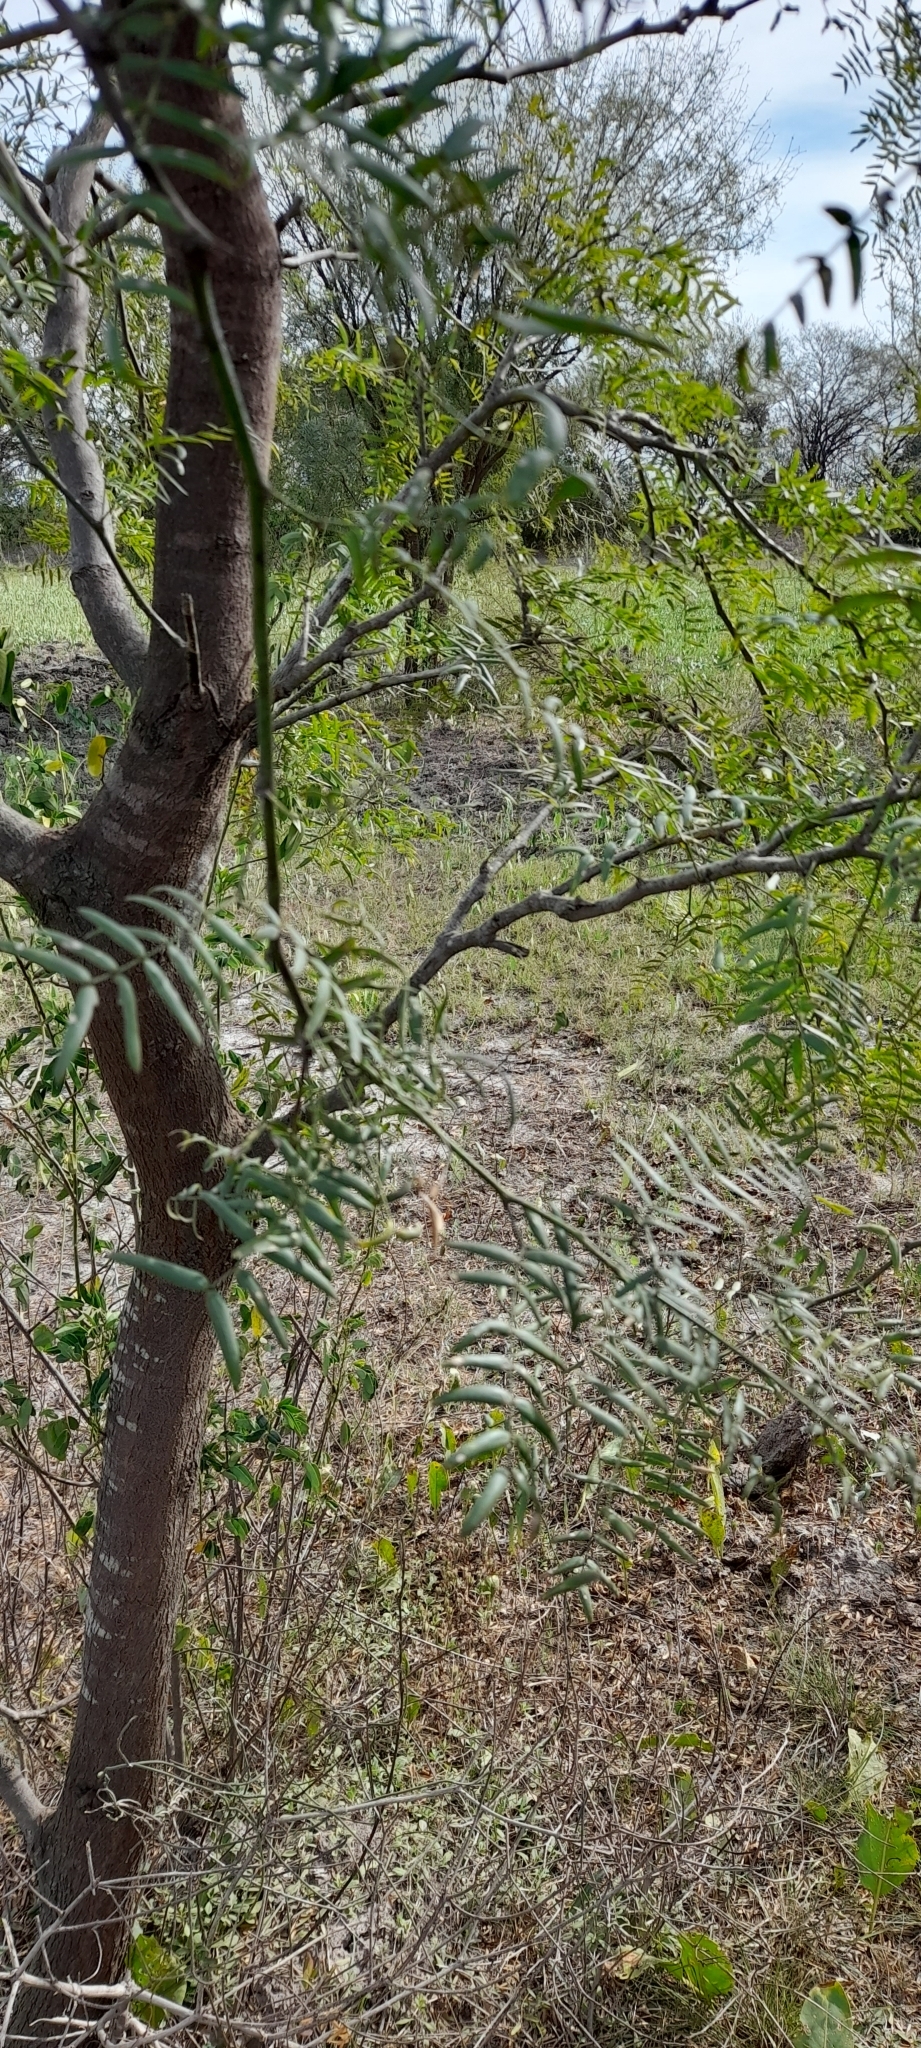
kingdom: Plantae
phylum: Tracheophyta
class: Magnoliopsida
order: Fabales
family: Fabaceae
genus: Prosopis
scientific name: Prosopis hassleri
